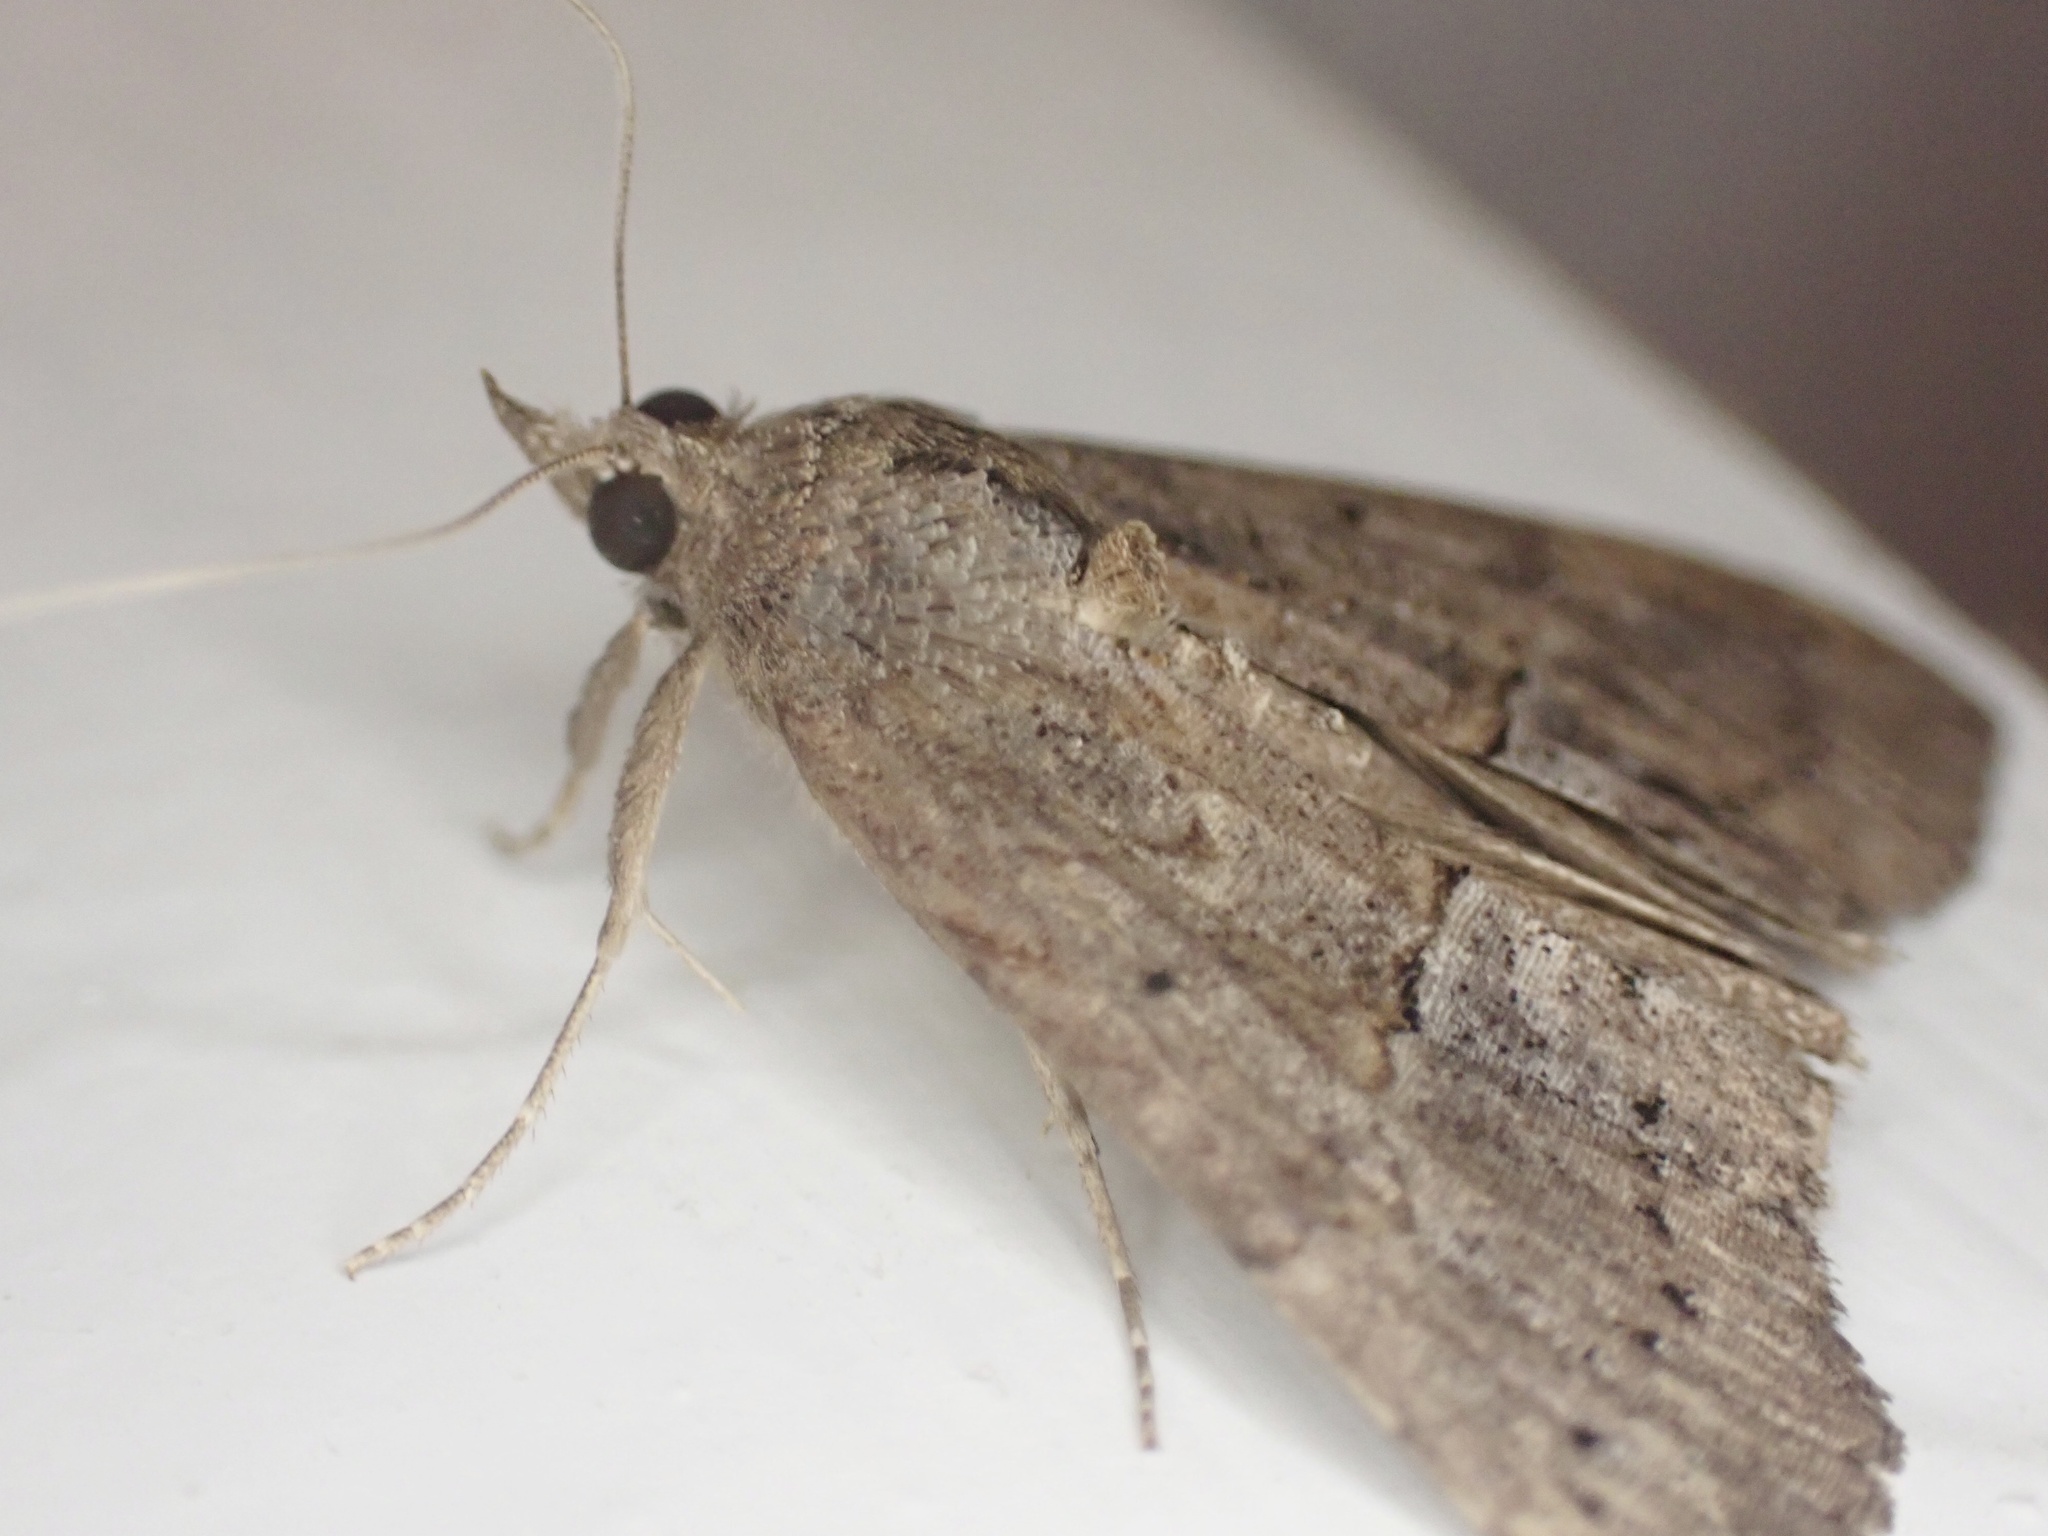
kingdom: Animalia
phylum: Arthropoda
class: Insecta
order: Lepidoptera
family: Erebidae
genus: Hypena
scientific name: Hypena scabra
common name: Green cloverworm
